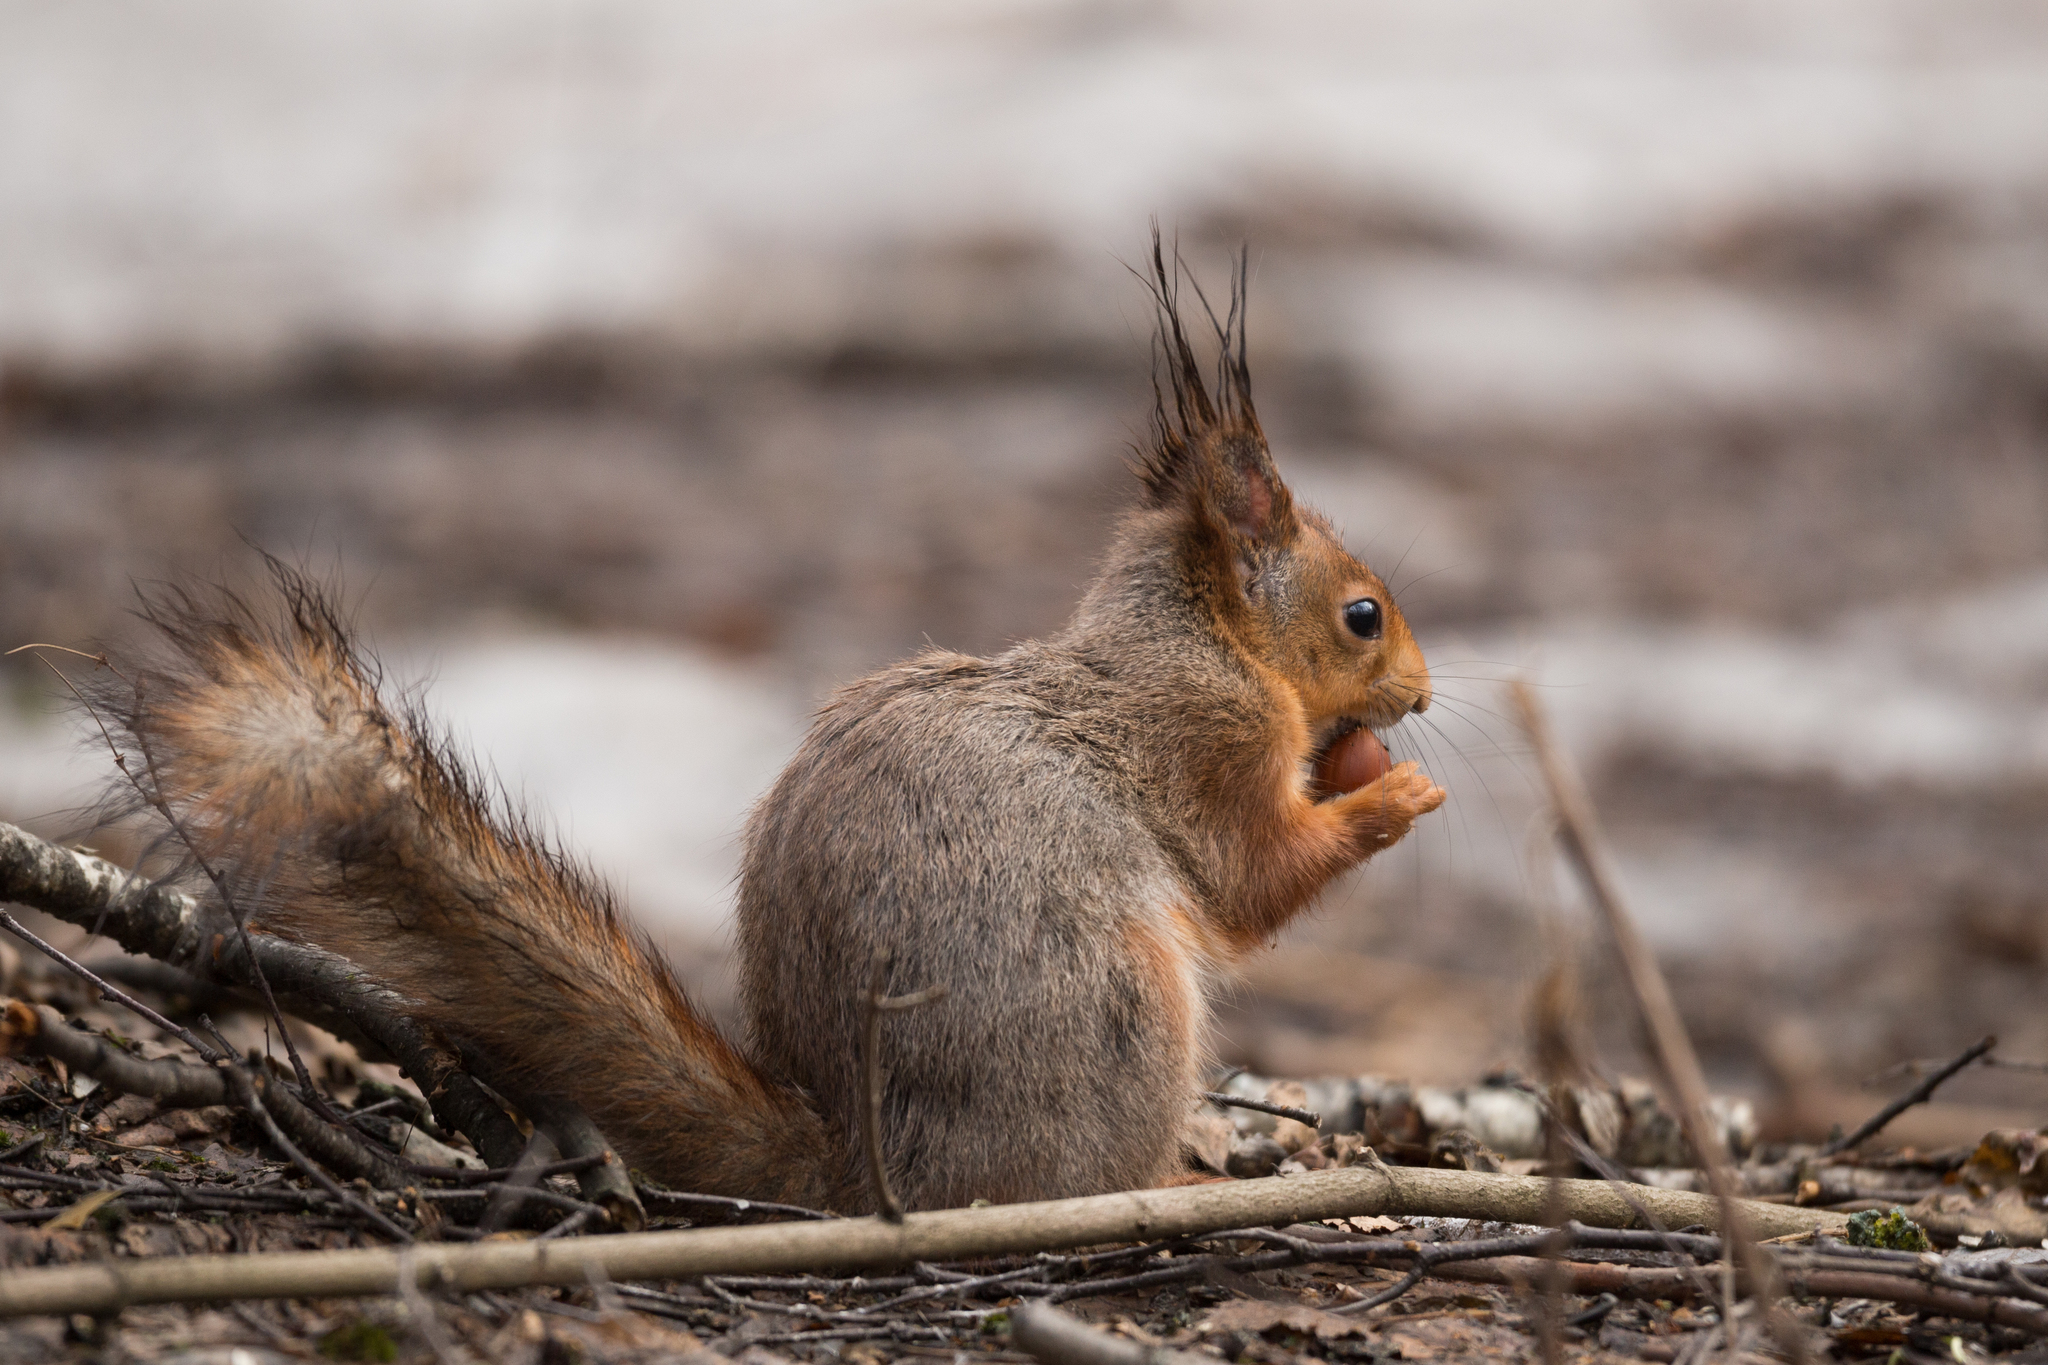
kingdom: Animalia
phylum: Chordata
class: Mammalia
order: Rodentia
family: Sciuridae
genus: Sciurus
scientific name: Sciurus vulgaris
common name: Eurasian red squirrel
